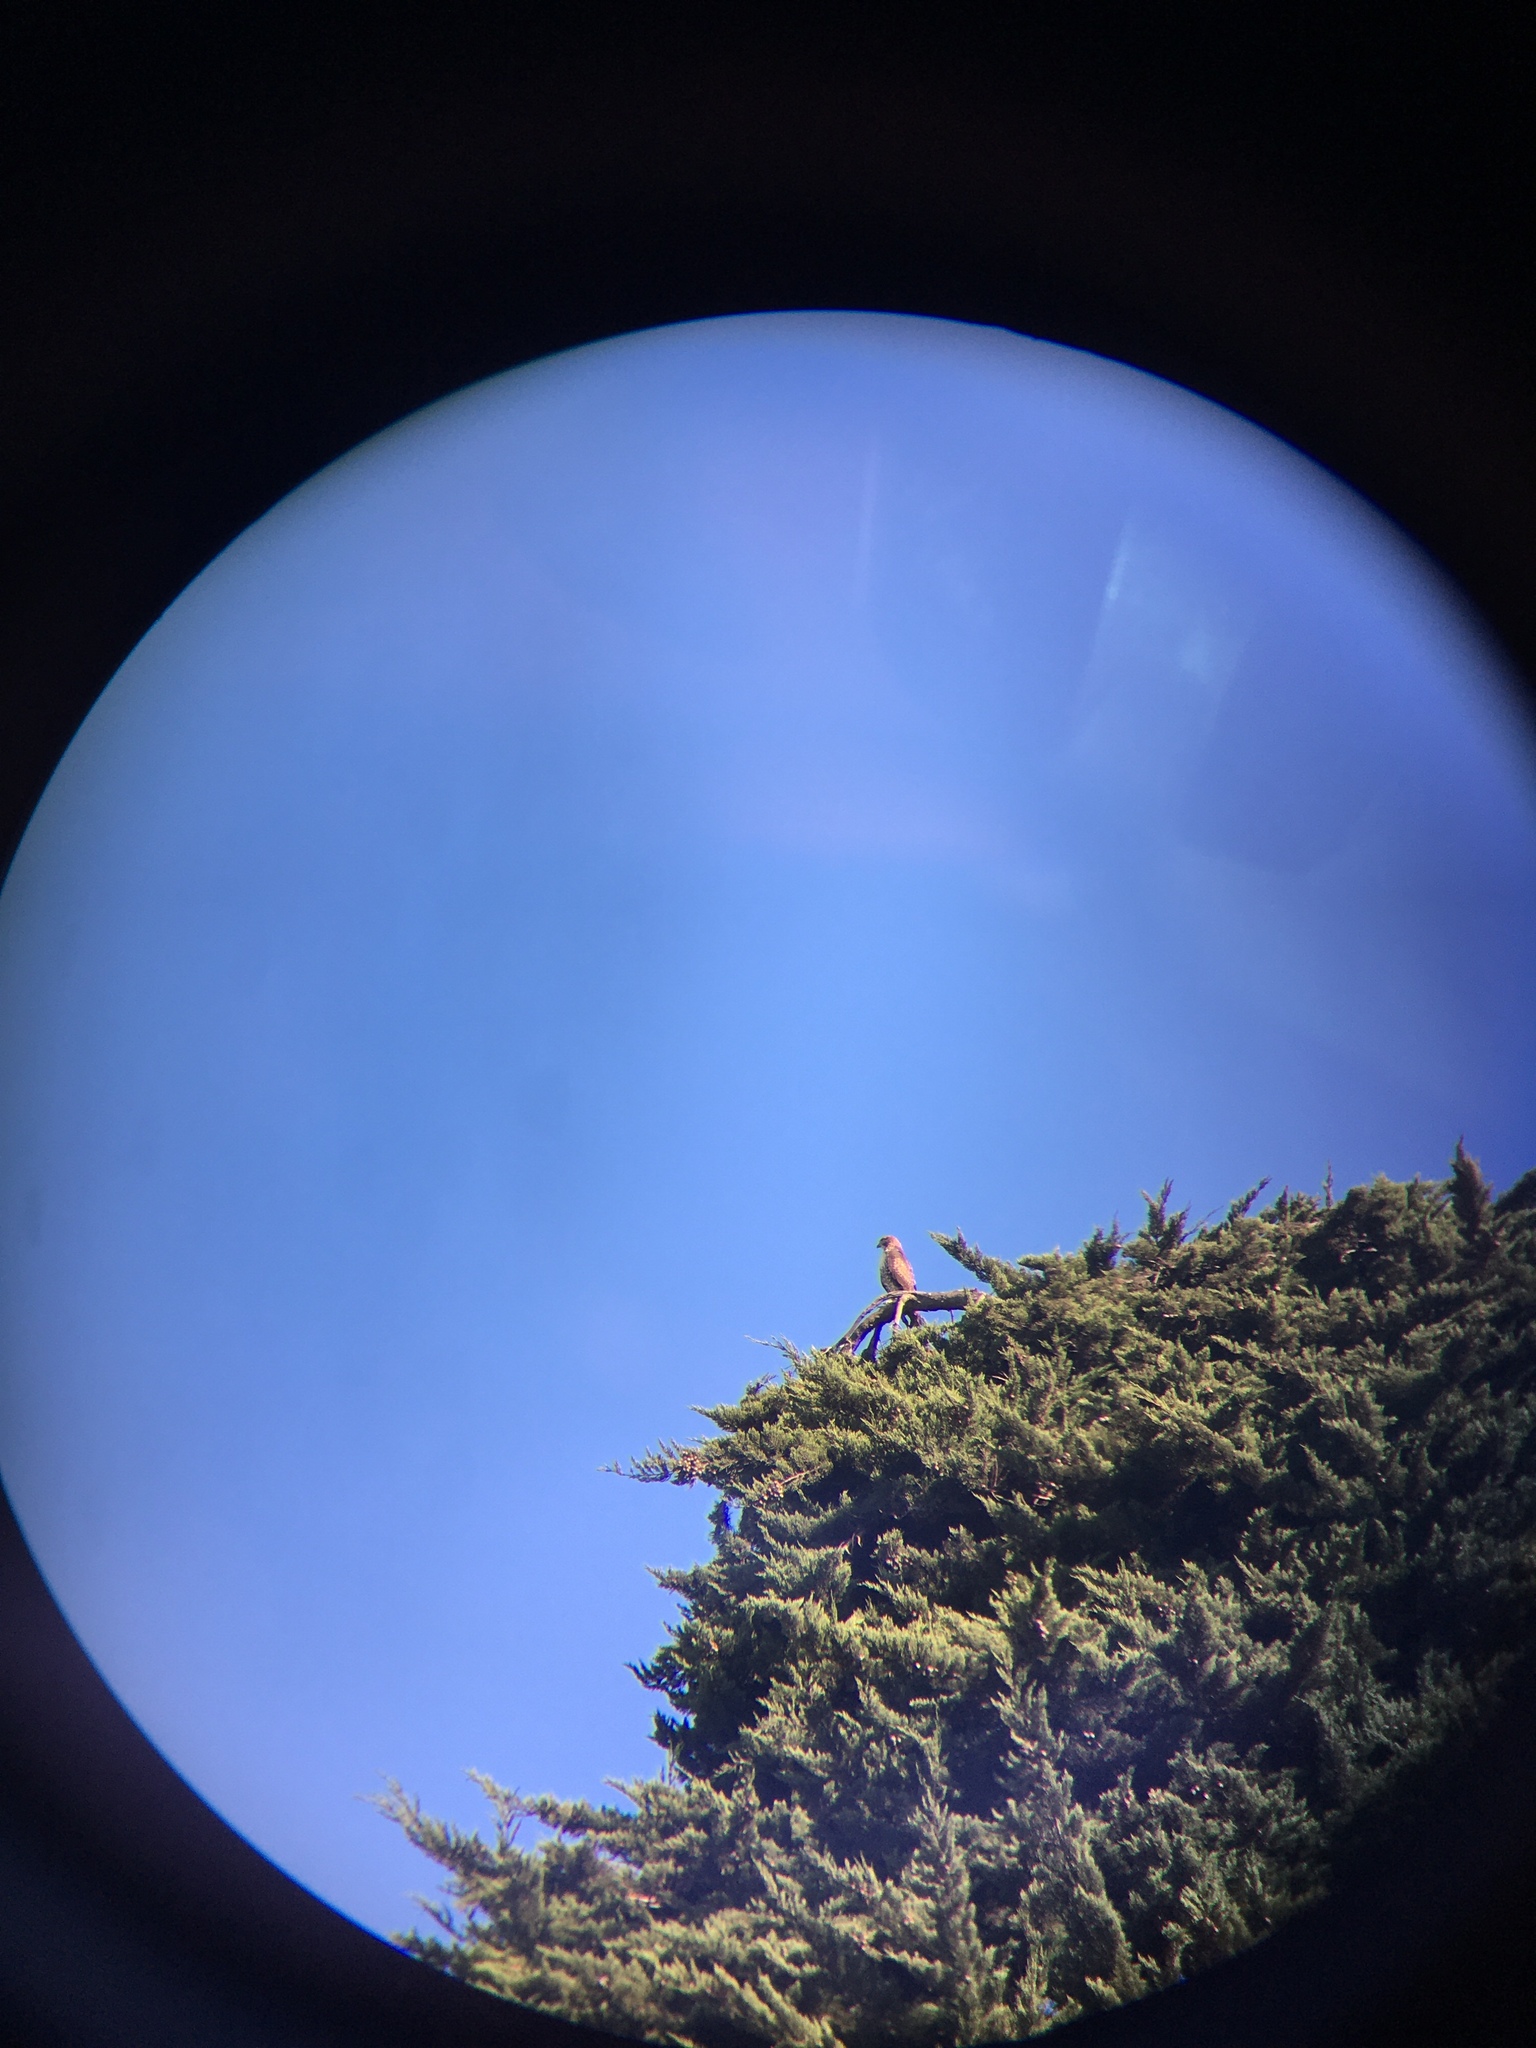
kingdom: Animalia
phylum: Chordata
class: Aves
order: Accipitriformes
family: Accipitridae
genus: Buteo
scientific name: Buteo jamaicensis
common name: Red-tailed hawk
